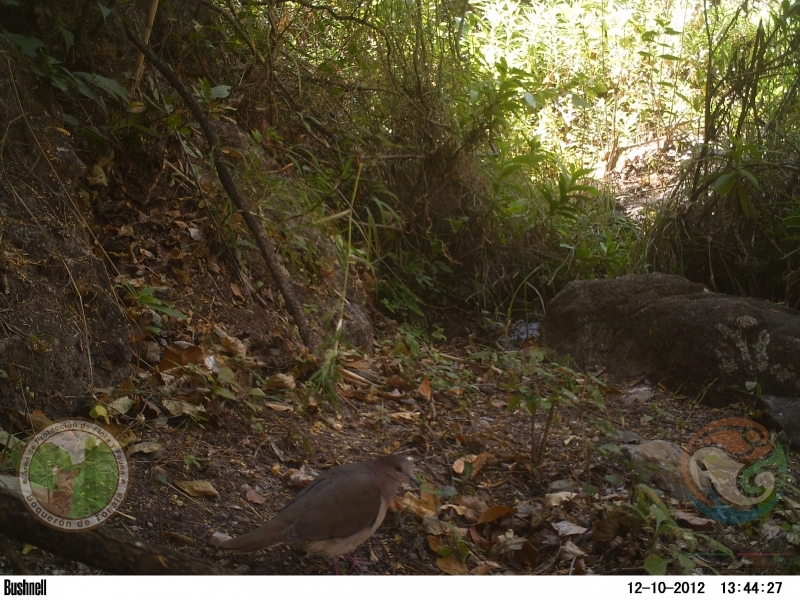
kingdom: Animalia
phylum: Chordata
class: Aves
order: Columbiformes
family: Columbidae
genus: Leptotila
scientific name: Leptotila verreauxi
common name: White-tipped dove
